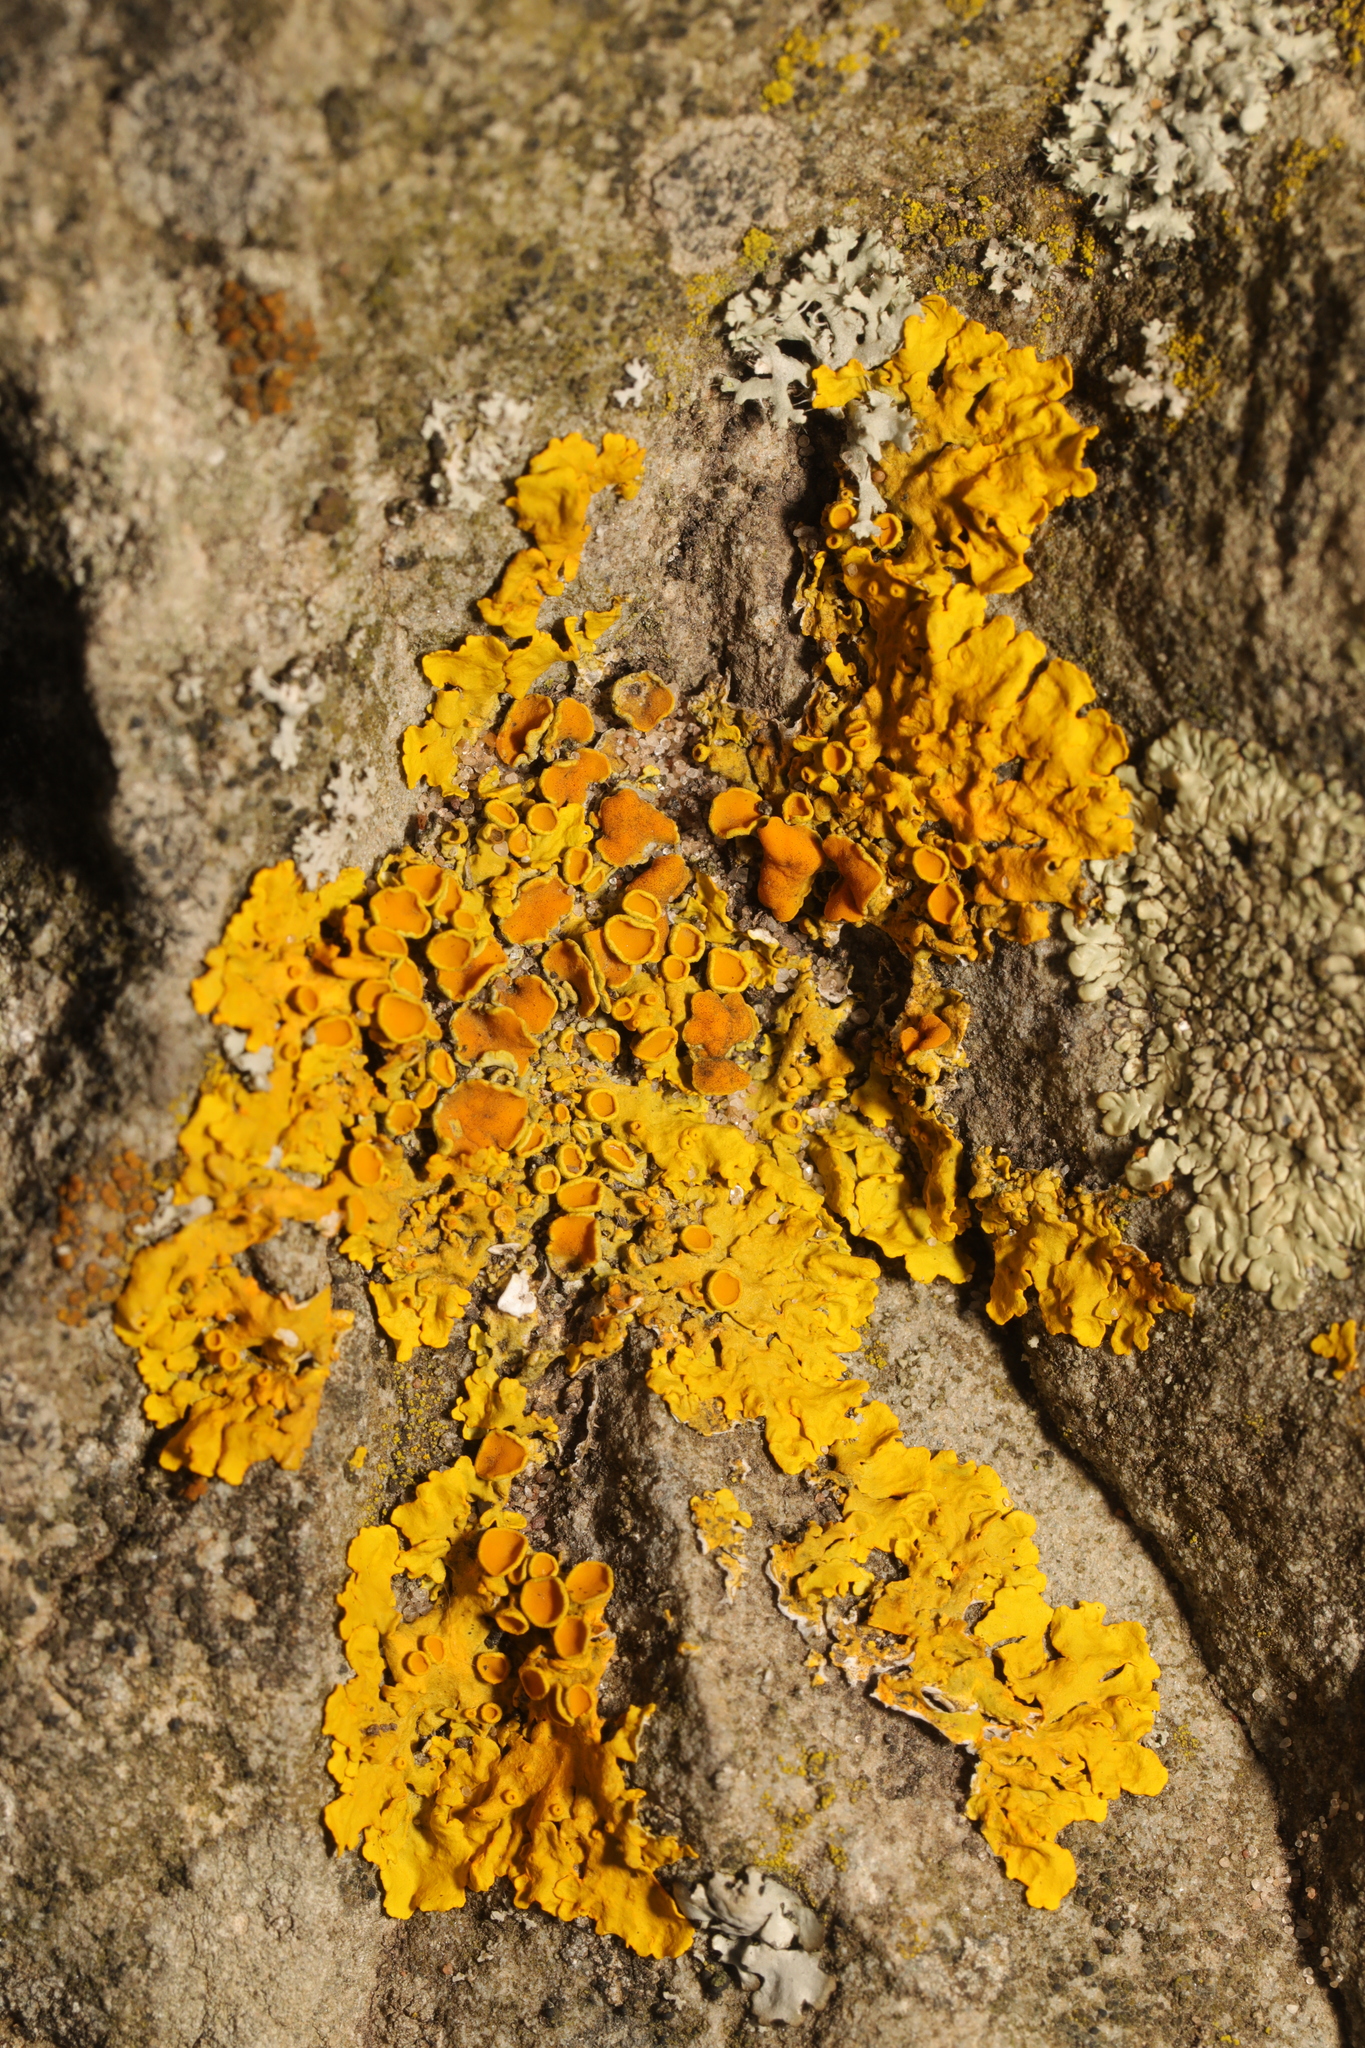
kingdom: Fungi
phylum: Ascomycota
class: Lecanoromycetes
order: Teloschistales
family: Teloschistaceae
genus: Xanthoria
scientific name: Xanthoria parietina
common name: Common orange lichen
